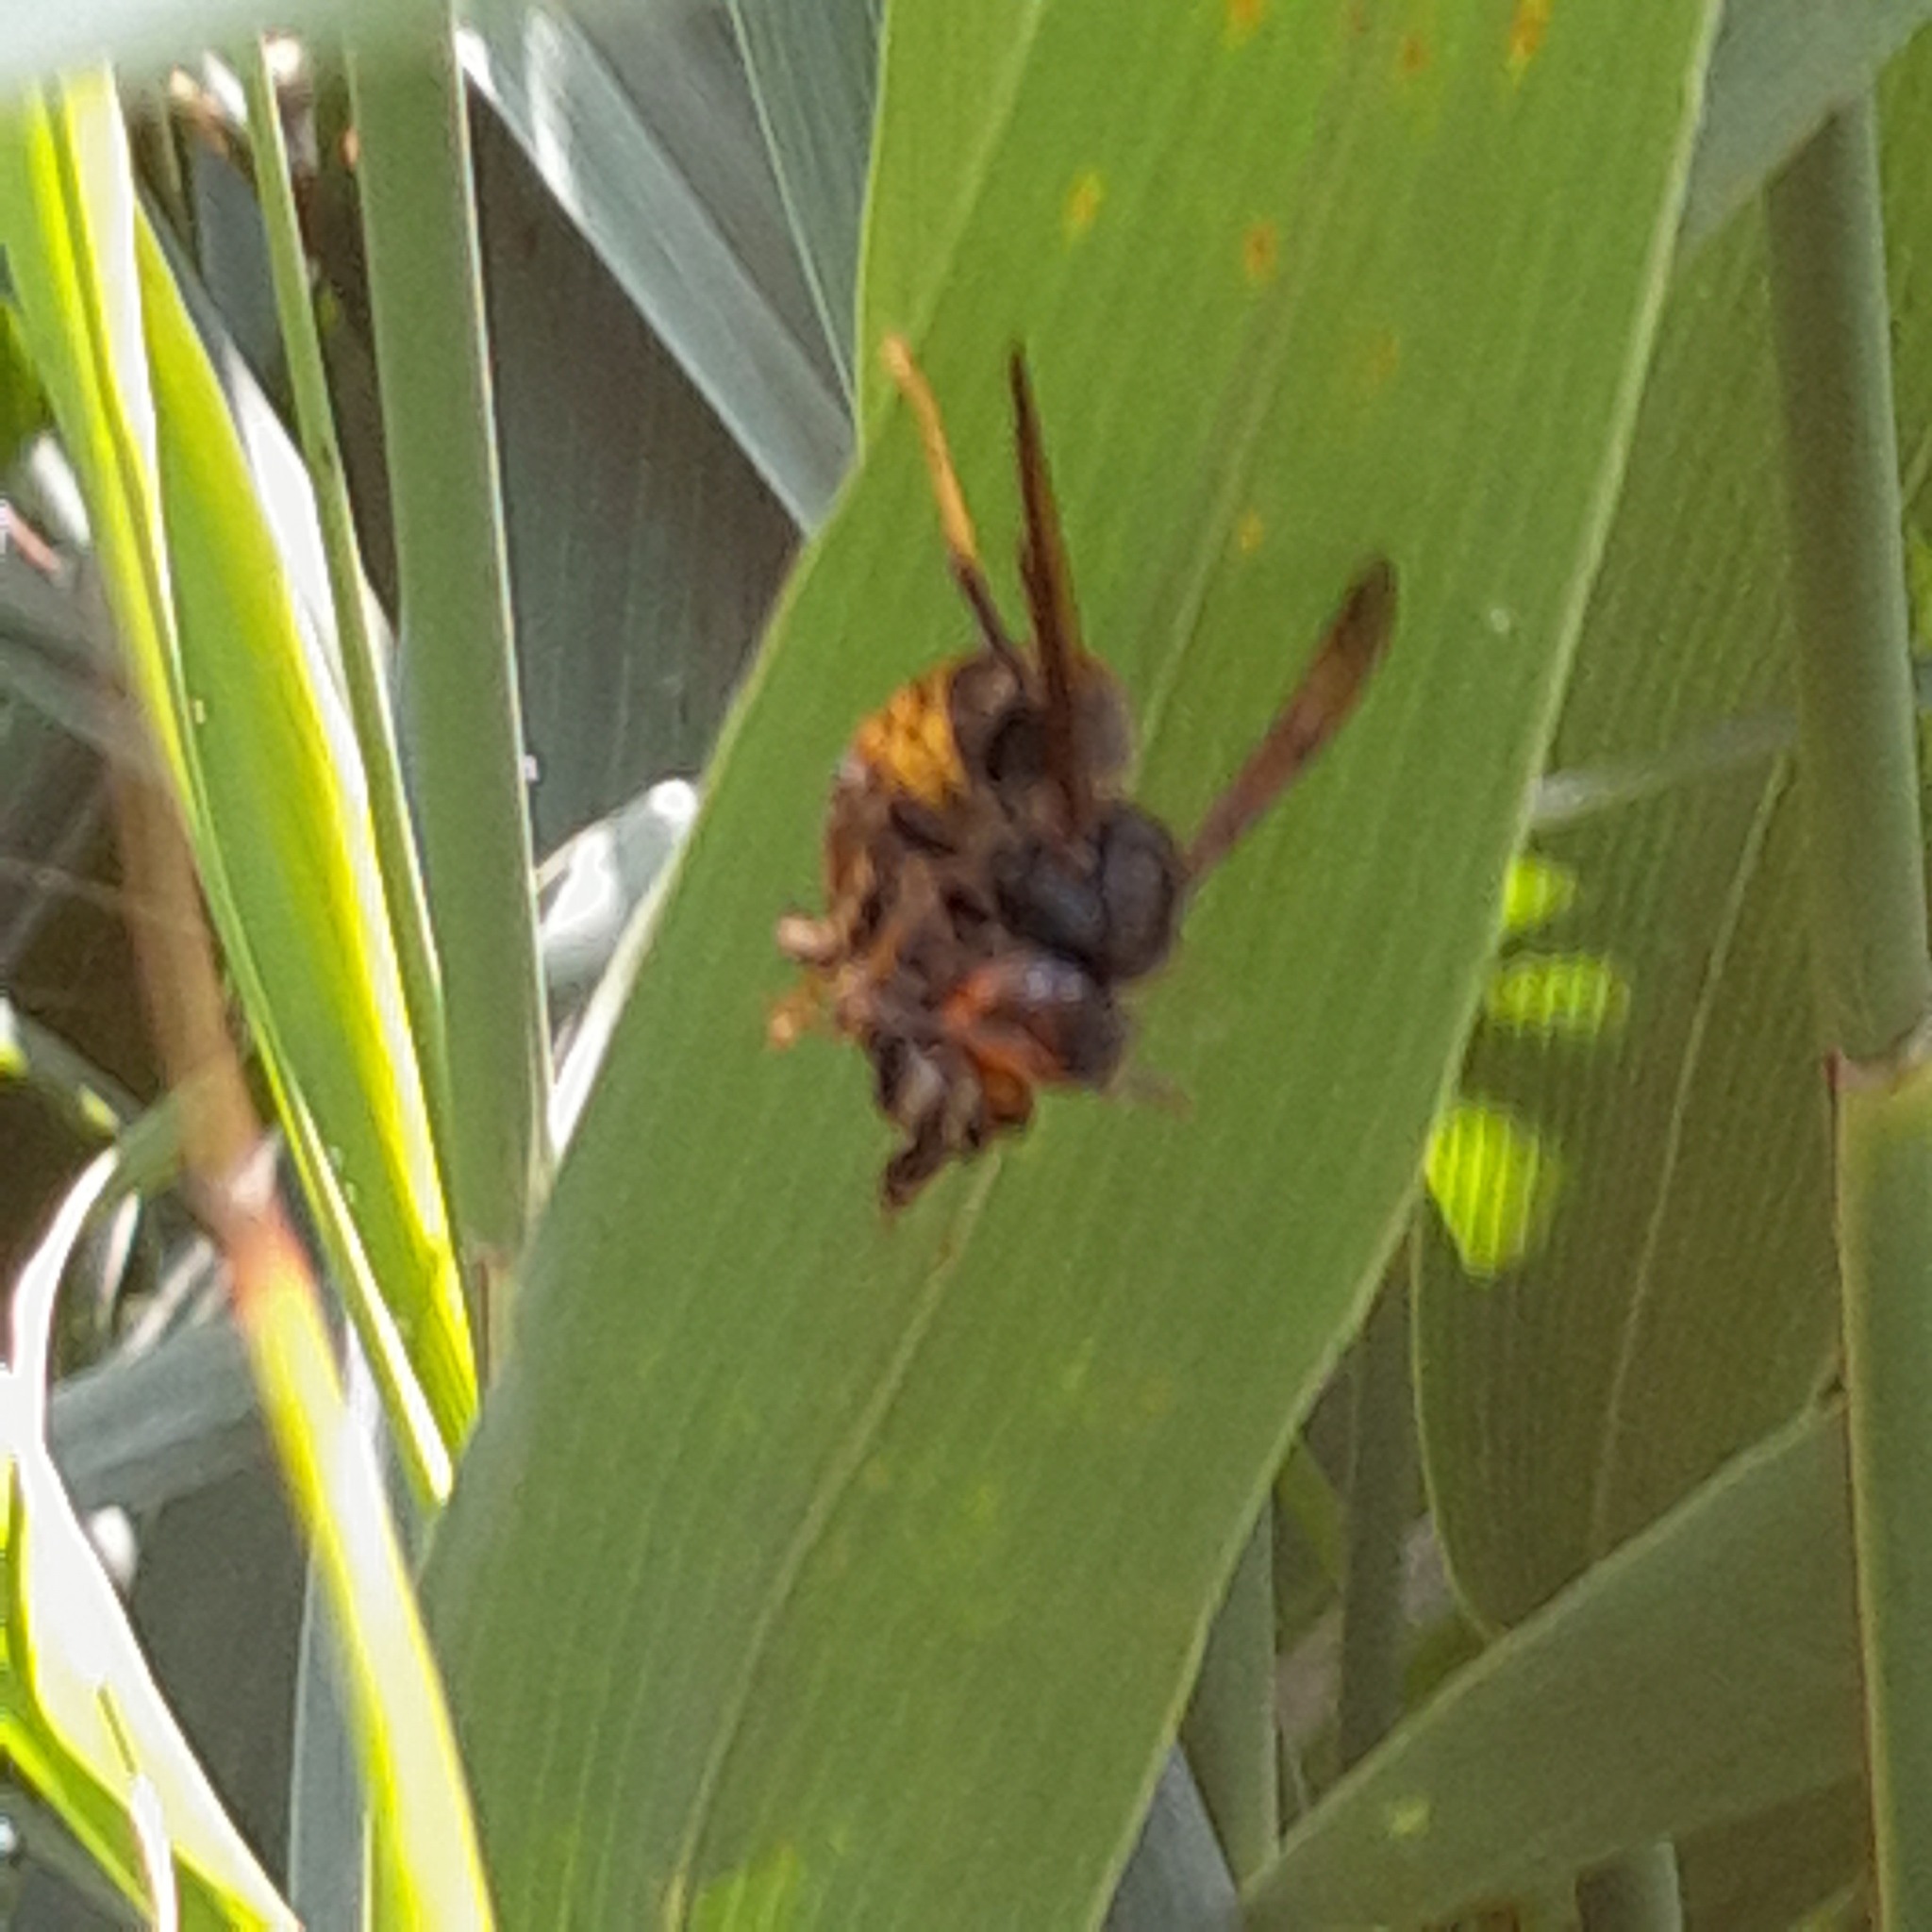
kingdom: Animalia
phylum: Arthropoda
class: Insecta
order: Hymenoptera
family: Vespidae
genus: Vespa
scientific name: Vespa velutina
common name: Asian hornet
